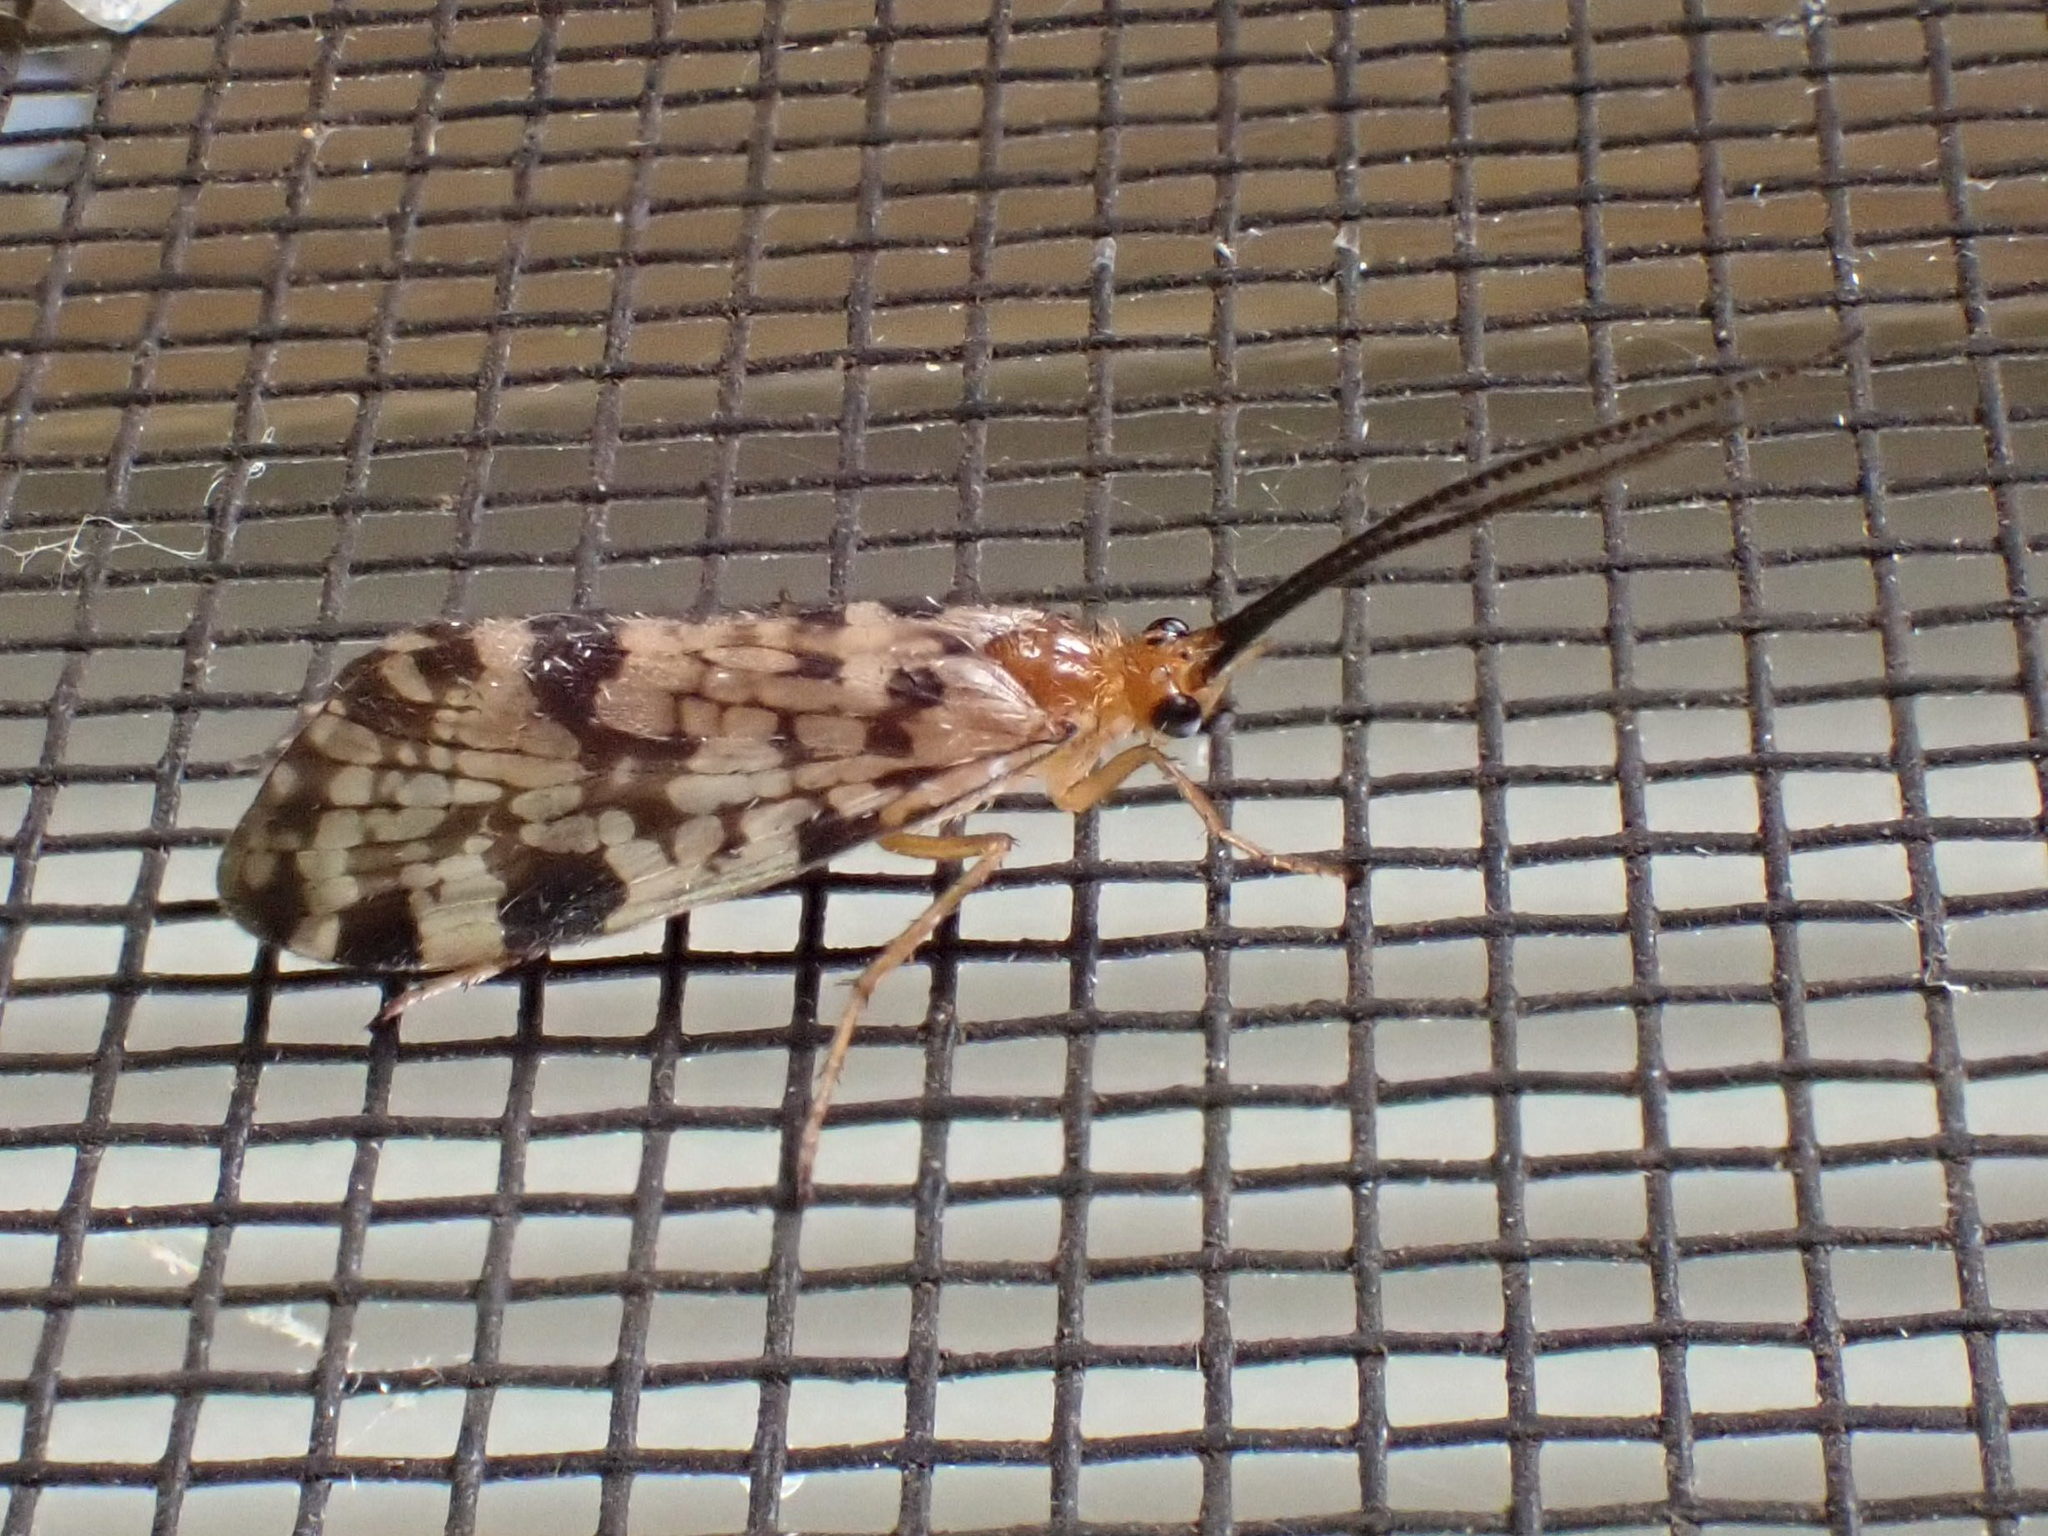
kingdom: Animalia
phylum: Arthropoda
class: Insecta
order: Trichoptera
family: Phryganeidae
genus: Banksiola
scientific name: Banksiola dossuaria
